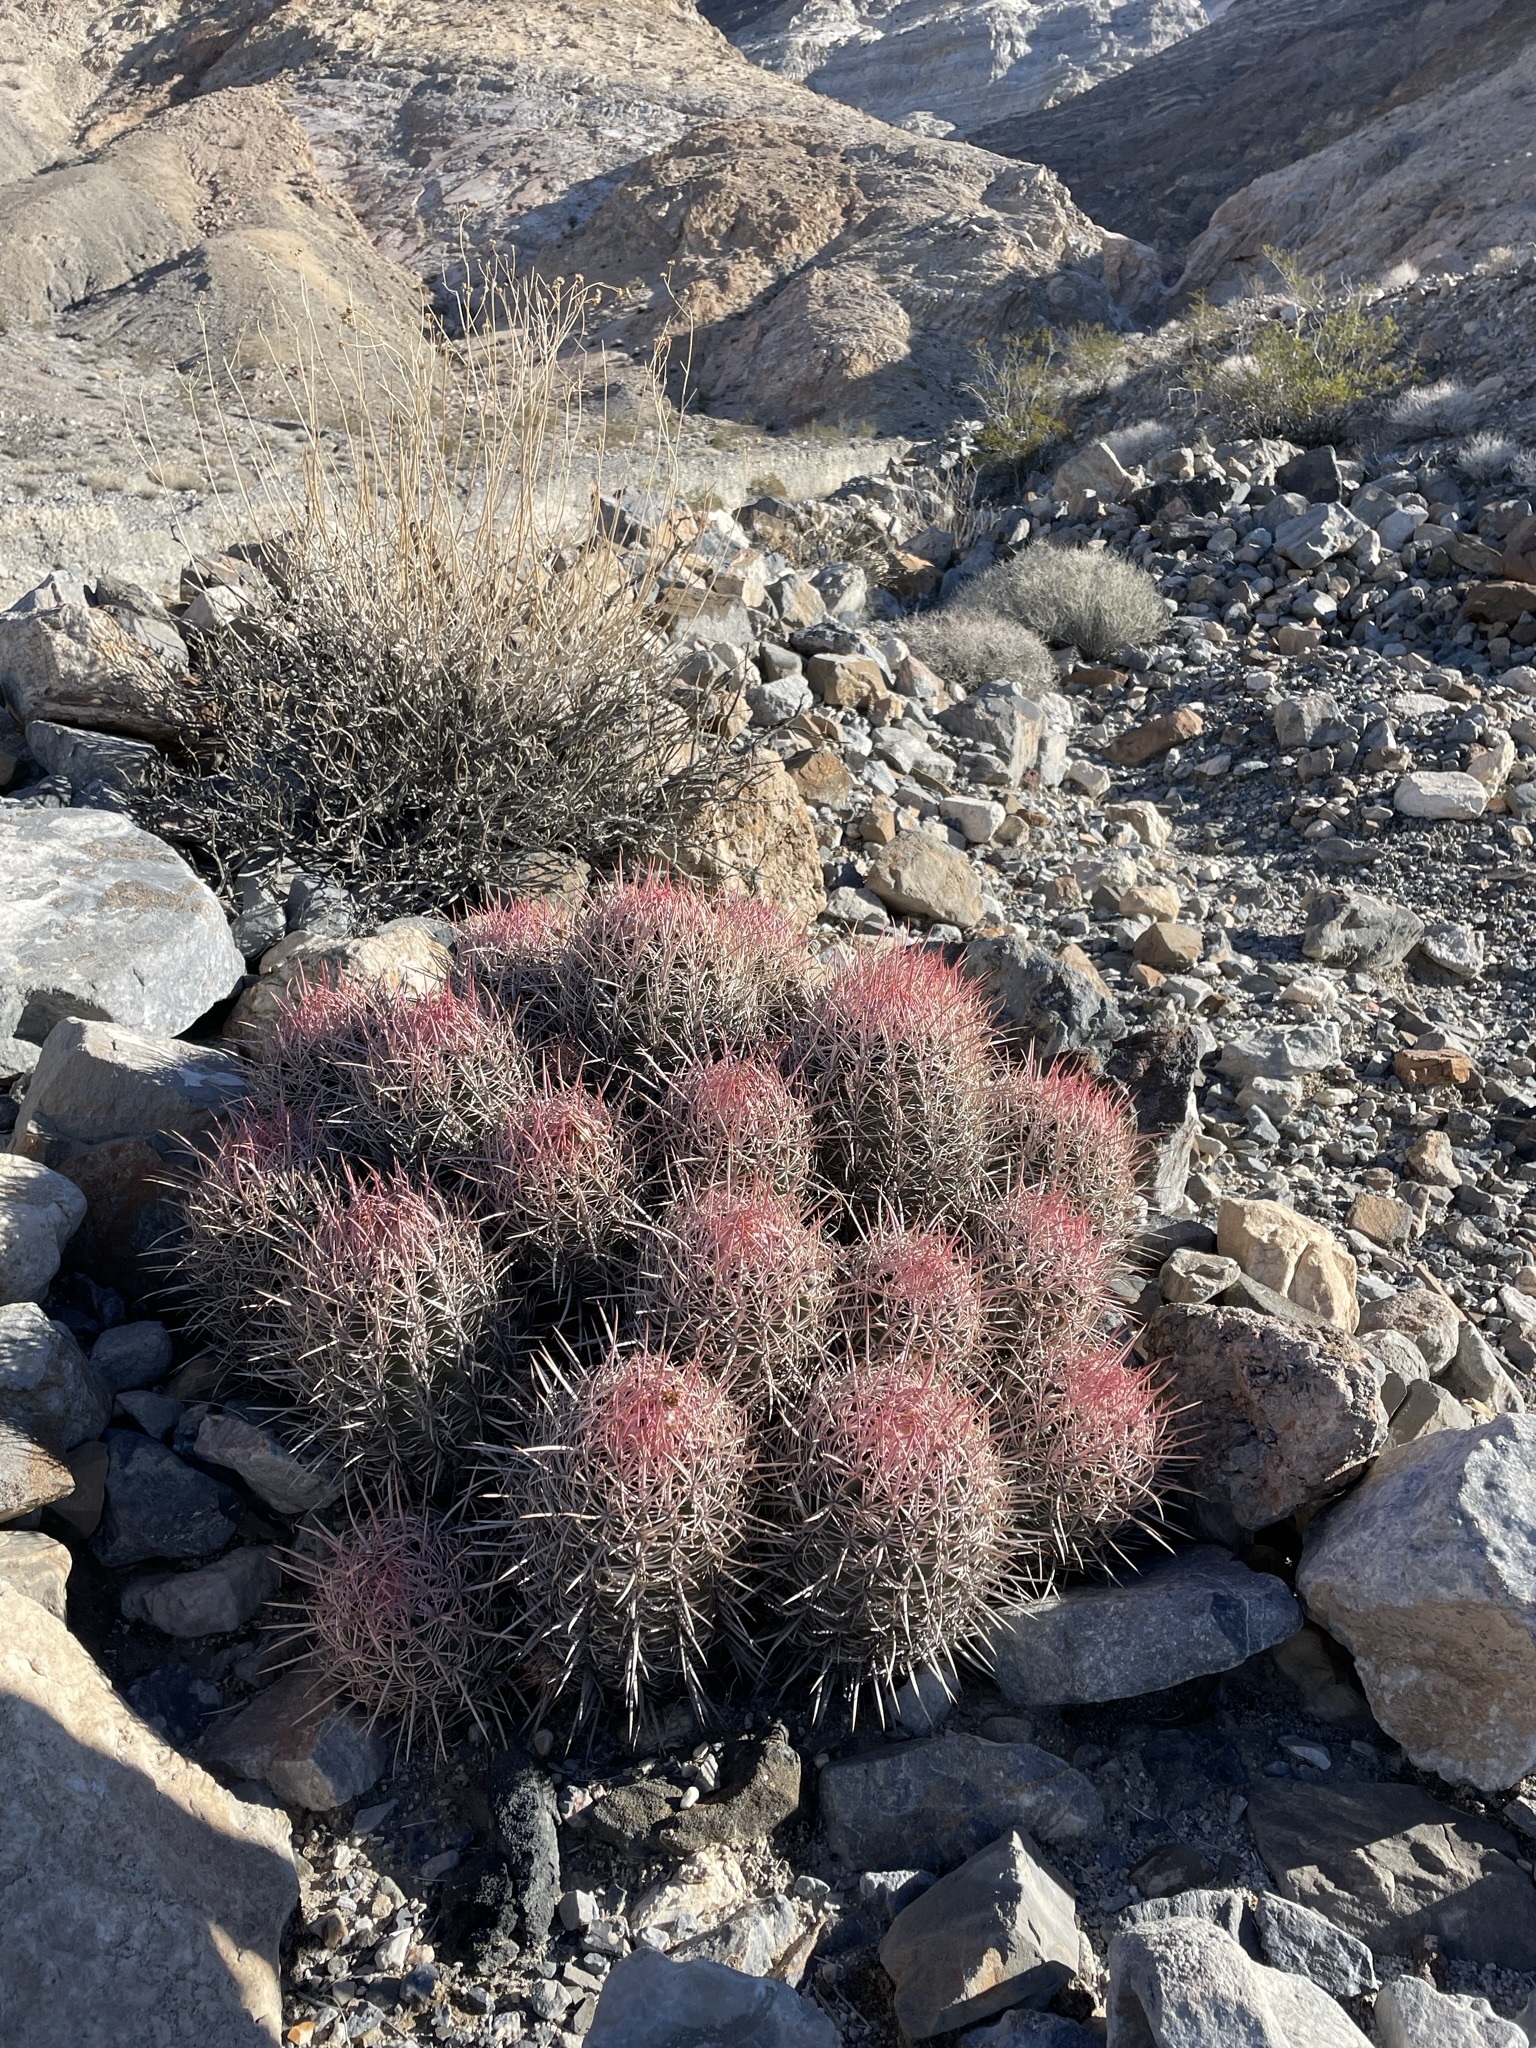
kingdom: Plantae
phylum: Tracheophyta
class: Magnoliopsida
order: Caryophyllales
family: Cactaceae
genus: Echinocactus
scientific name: Echinocactus polycephalus
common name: Cottontop cactus
